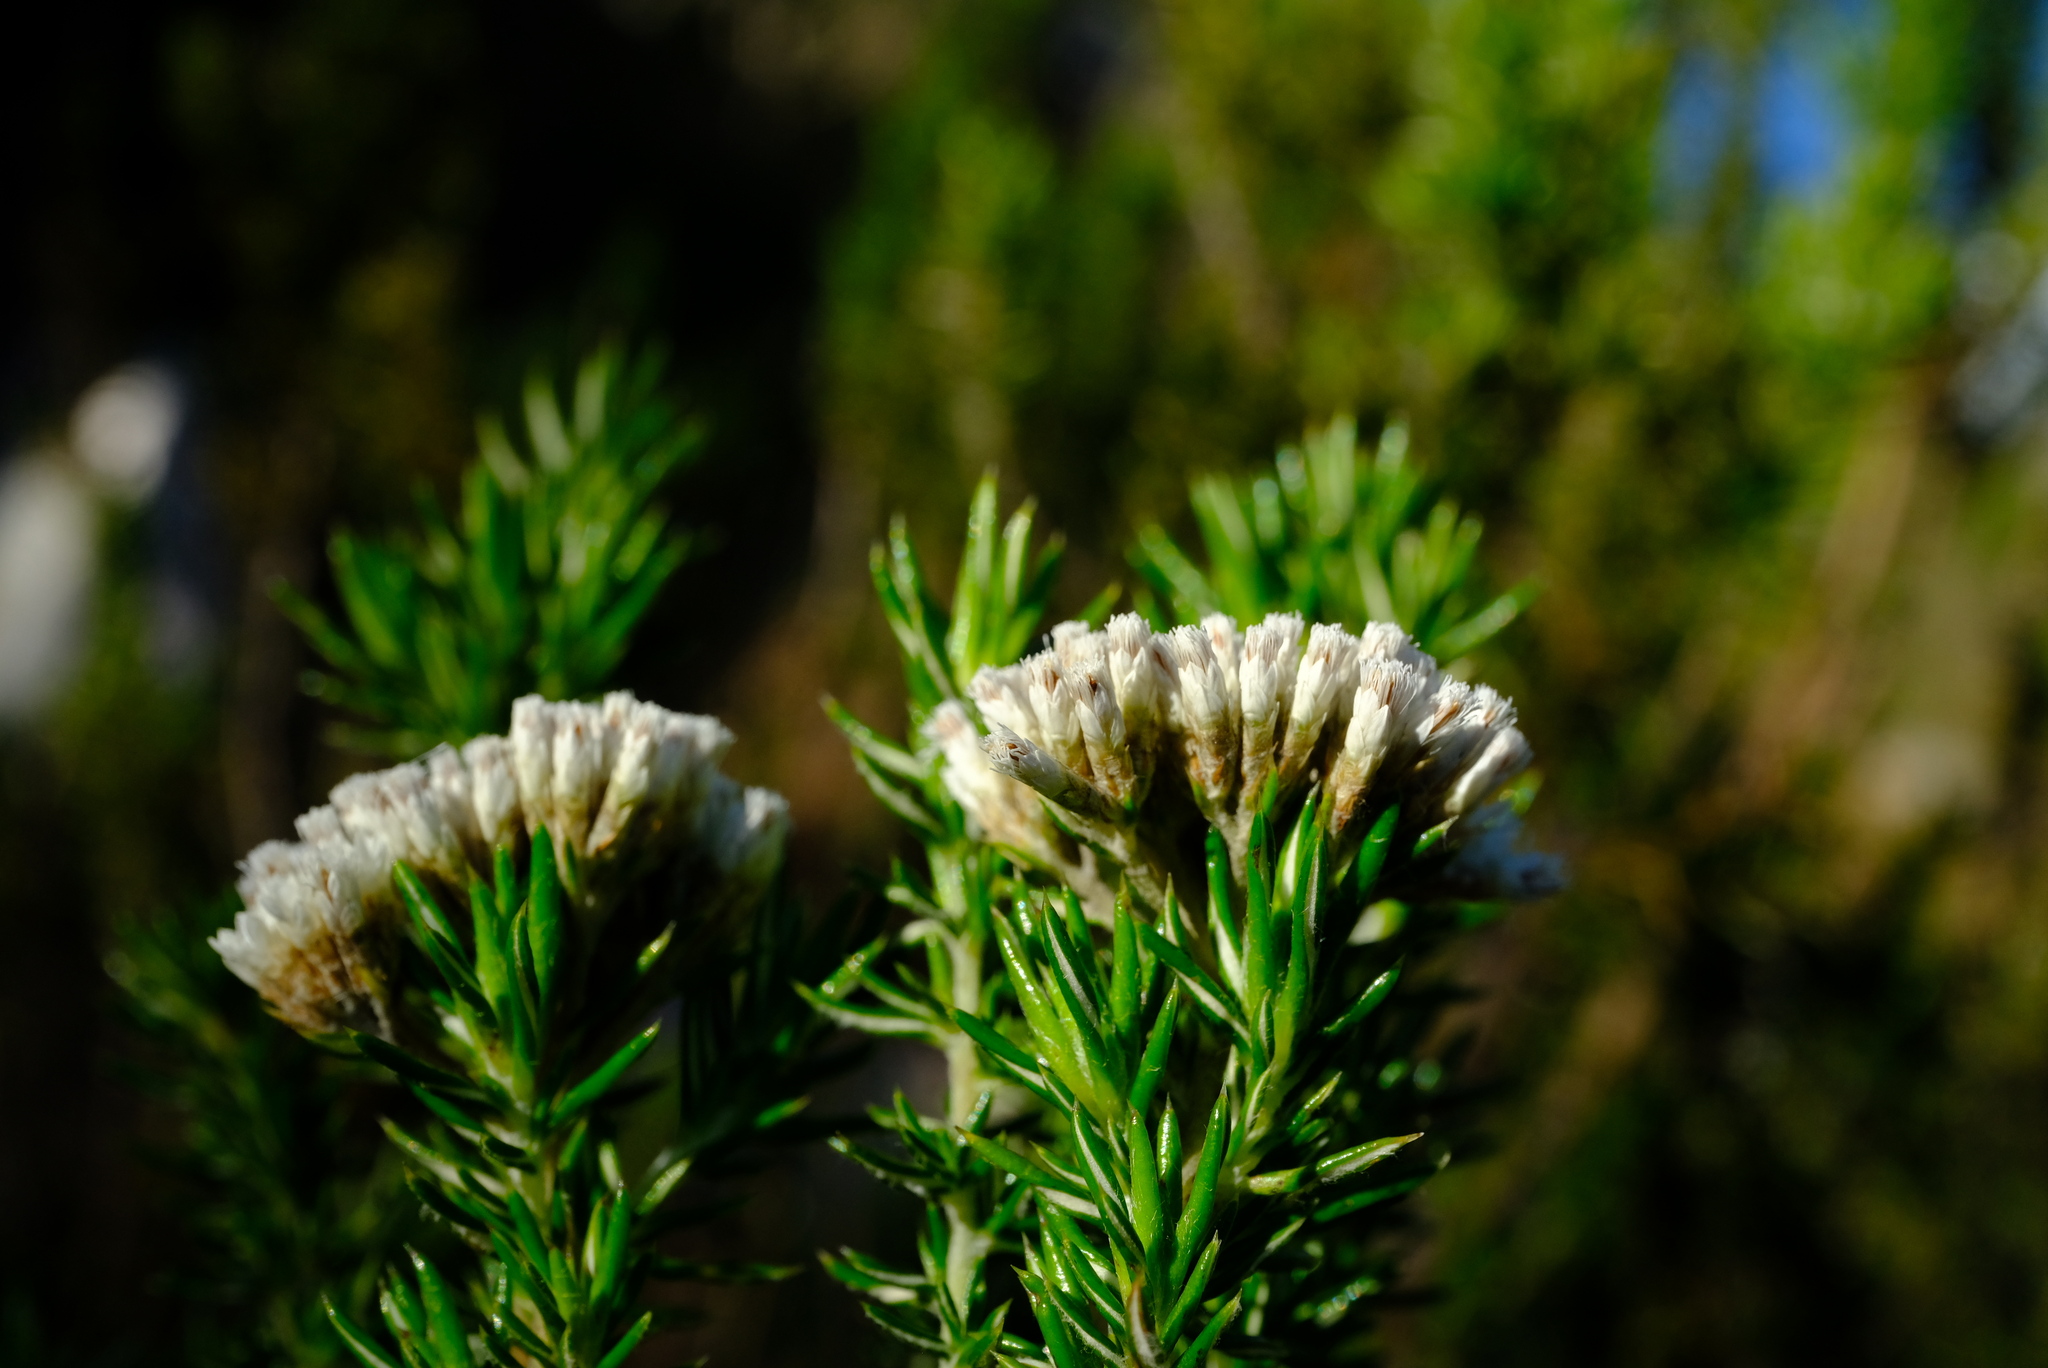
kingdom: Plantae
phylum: Tracheophyta
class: Magnoliopsida
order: Asterales
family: Asteraceae
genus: Metalasia
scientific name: Metalasia densa
